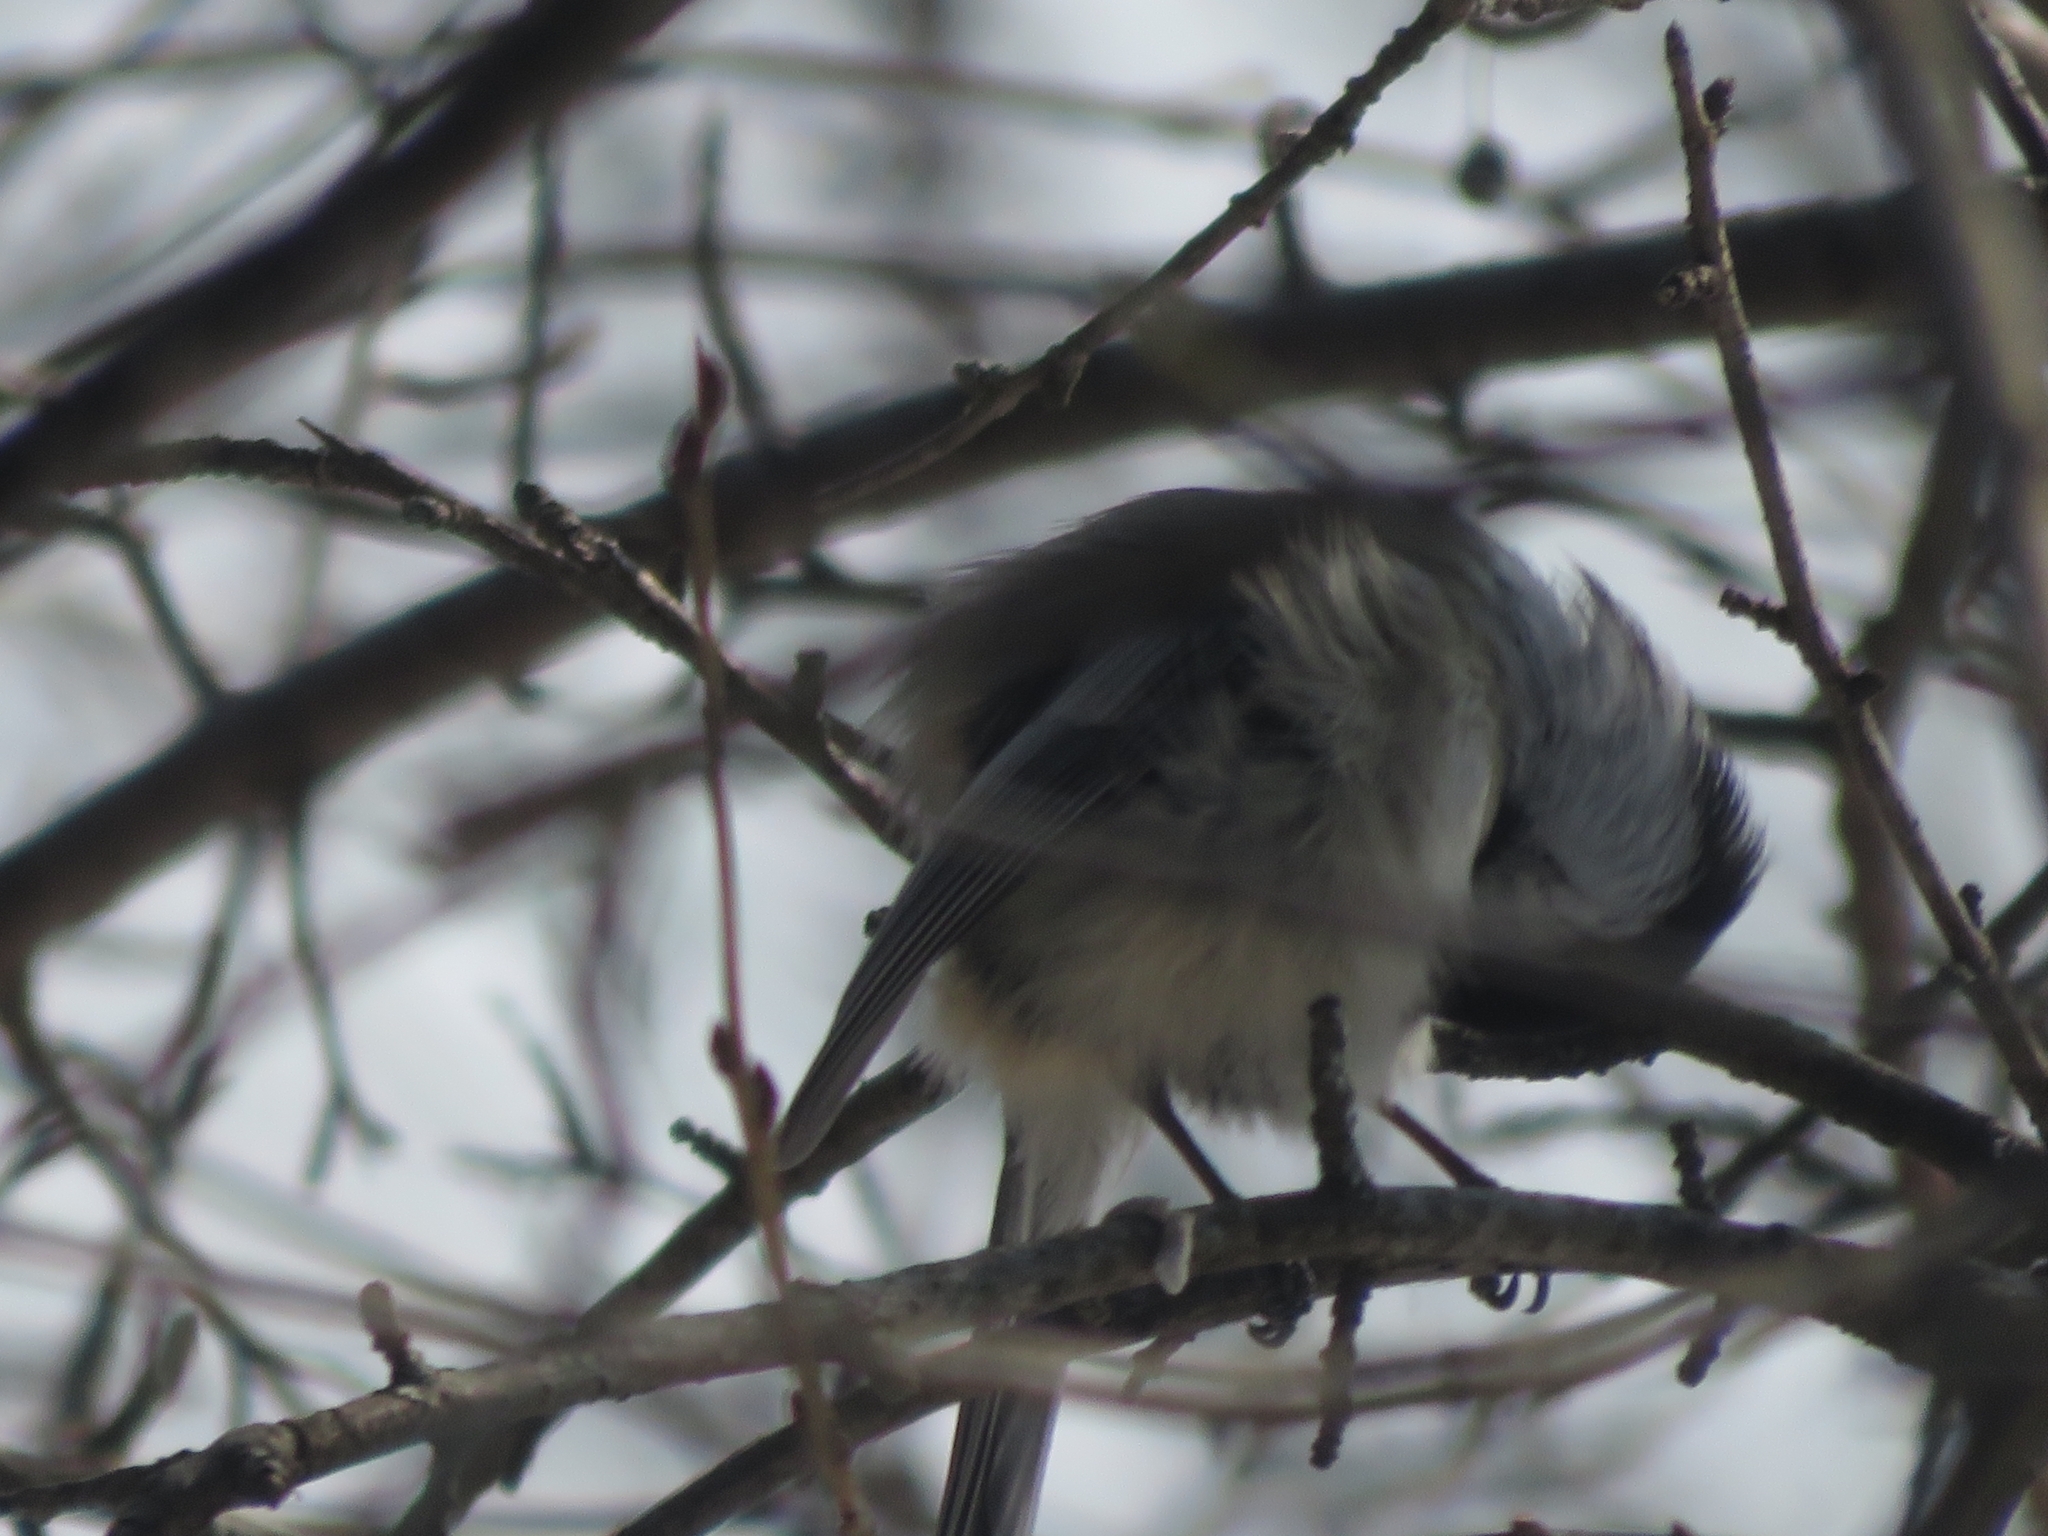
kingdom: Animalia
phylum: Chordata
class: Aves
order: Passeriformes
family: Paridae
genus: Poecile
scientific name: Poecile atricapillus
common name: Black-capped chickadee
